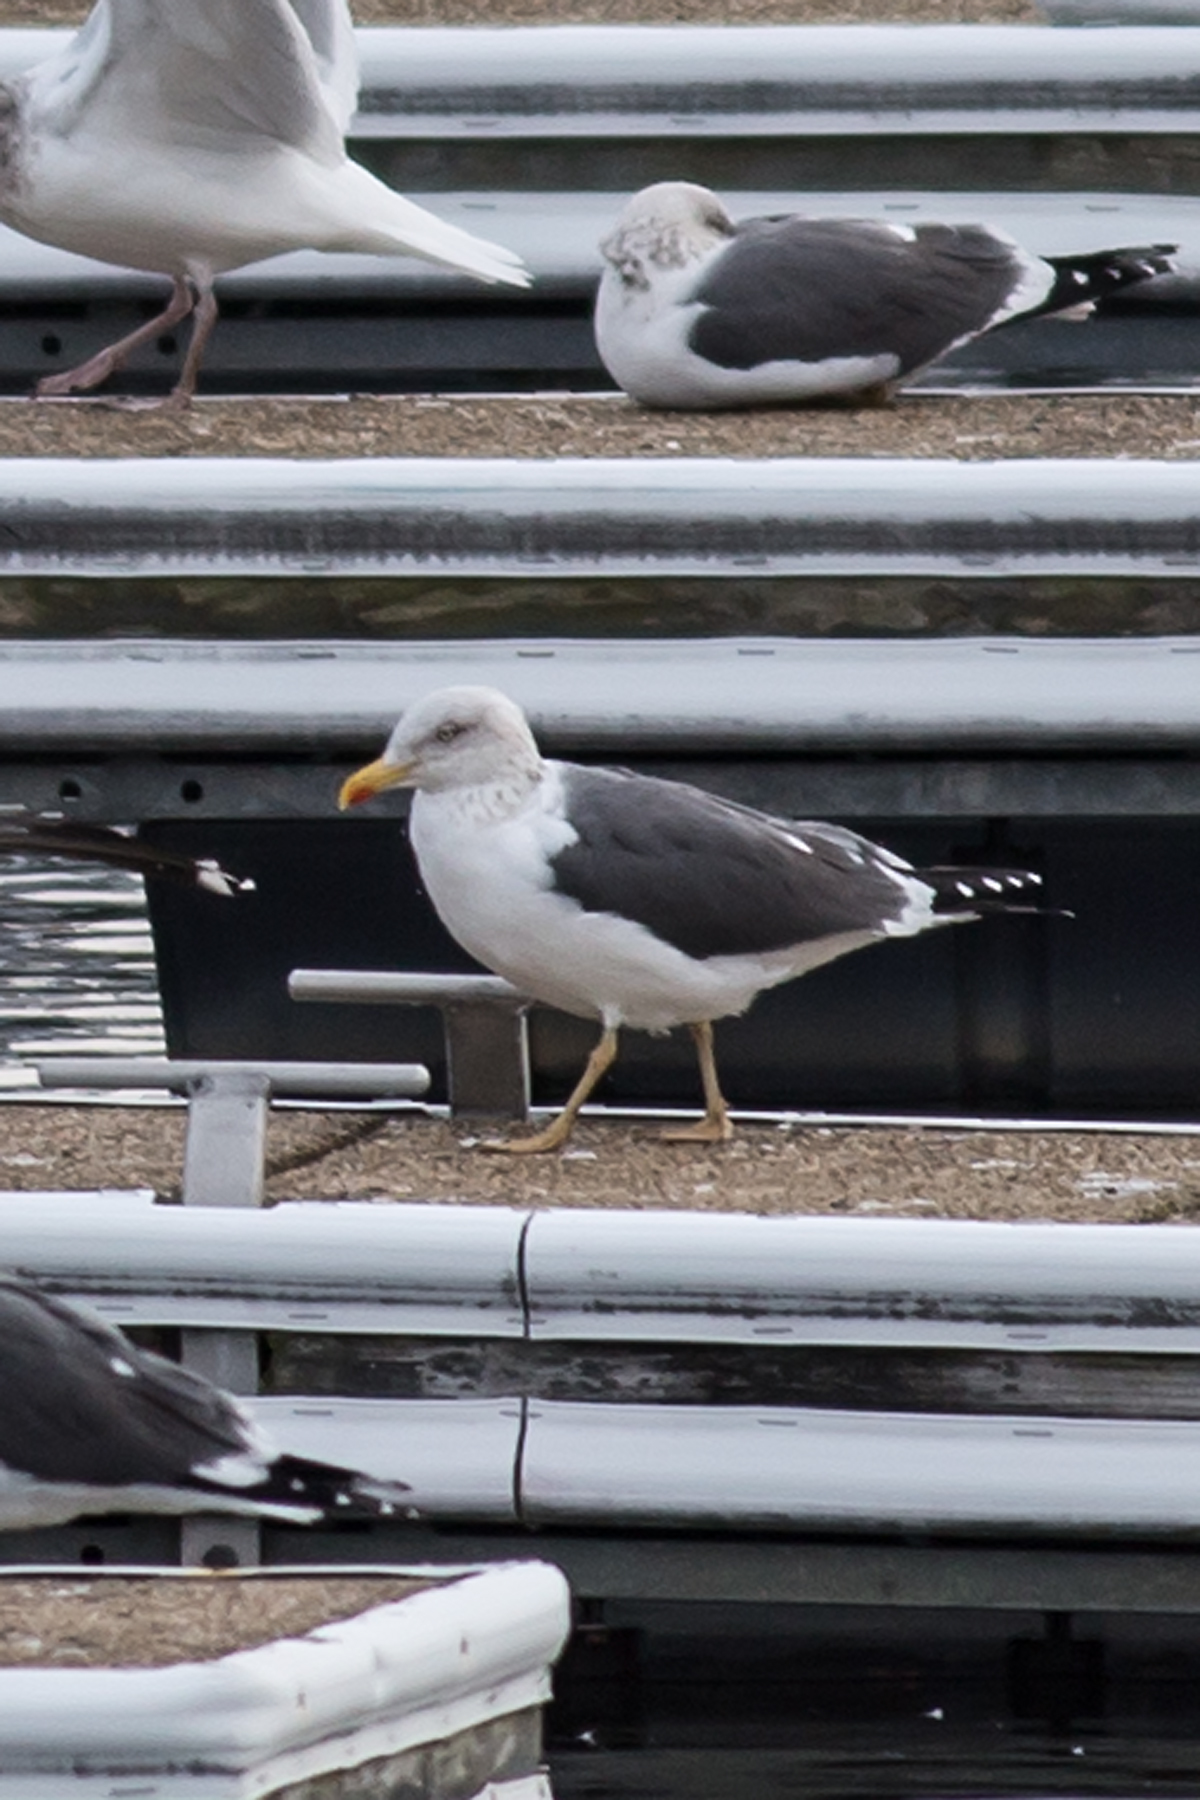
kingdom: Animalia
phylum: Chordata
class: Aves
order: Charadriiformes
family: Laridae
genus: Larus
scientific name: Larus fuscus
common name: Lesser black-backed gull
